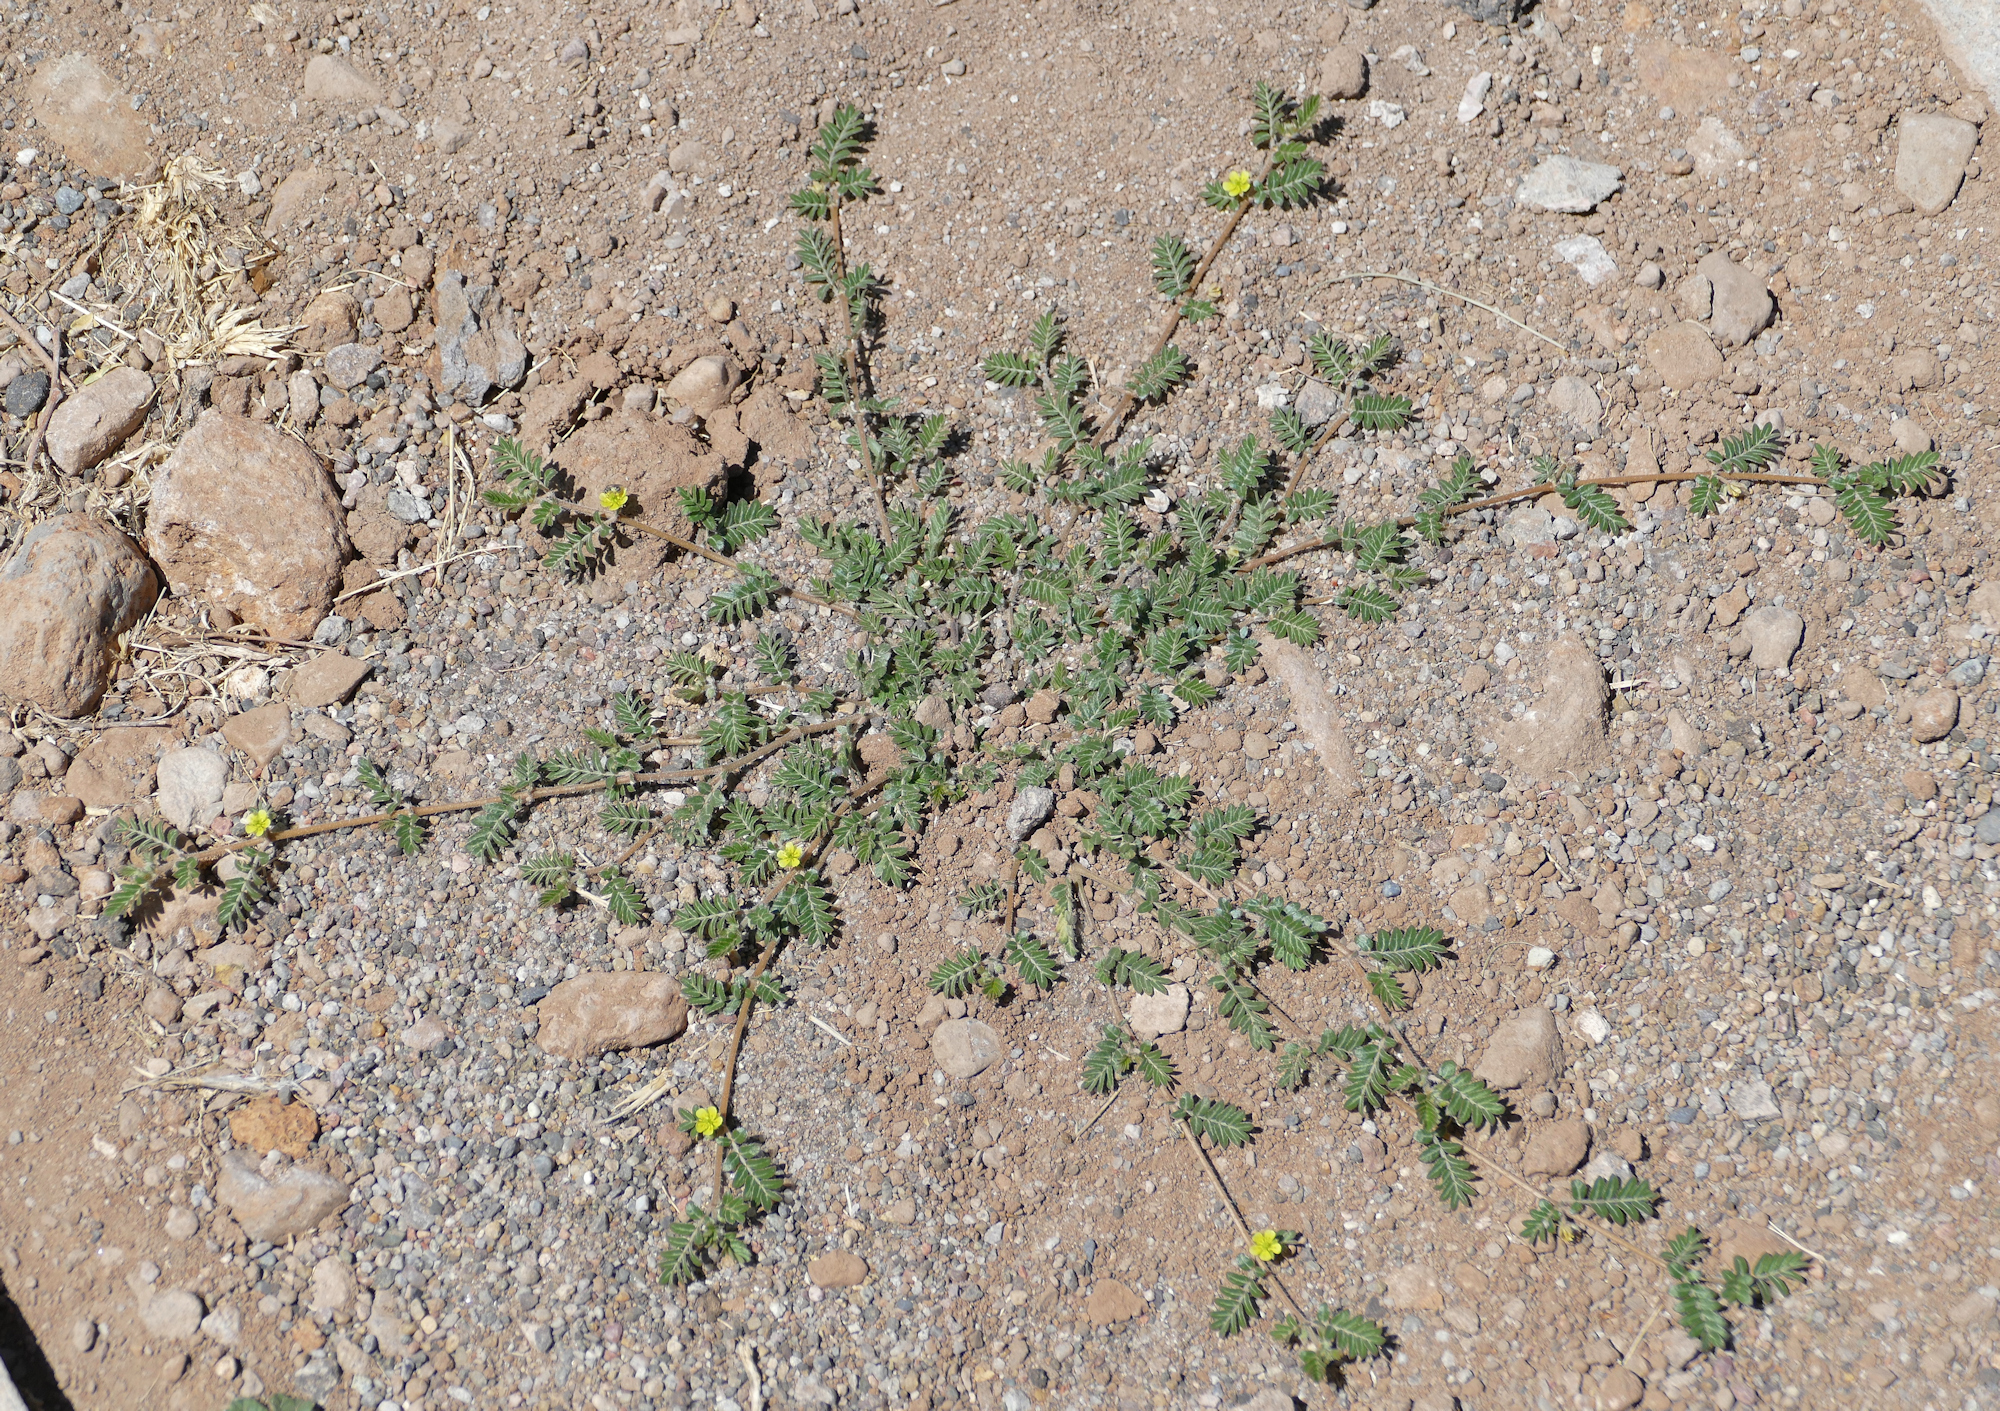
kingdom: Plantae
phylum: Tracheophyta
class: Magnoliopsida
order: Zygophyllales
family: Zygophyllaceae
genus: Tribulus
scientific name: Tribulus terrestris
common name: Puncturevine
